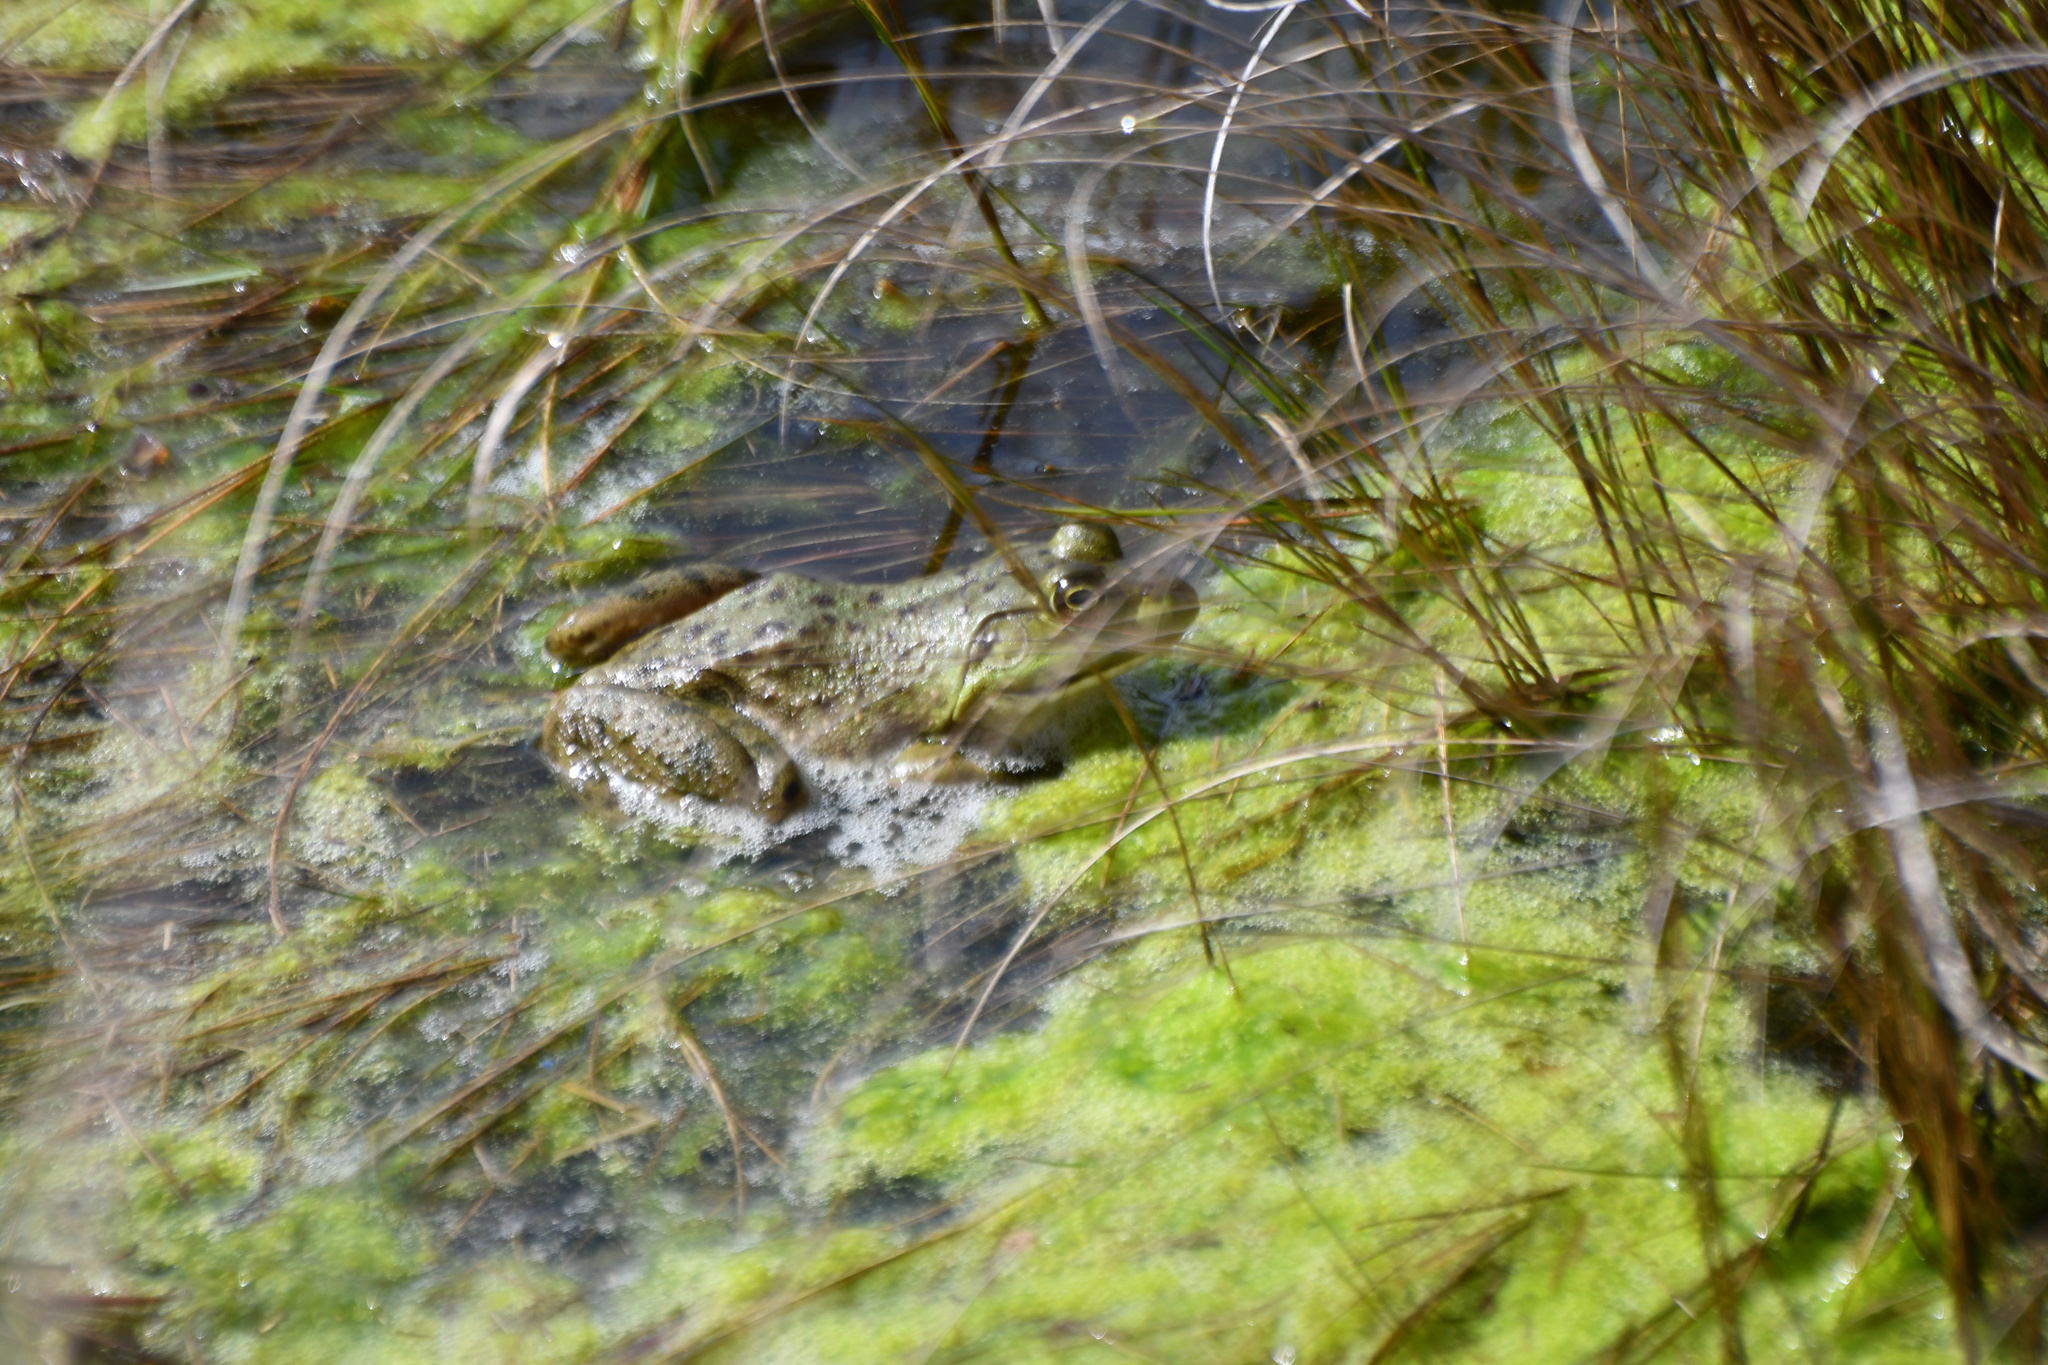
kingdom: Animalia
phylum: Chordata
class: Amphibia
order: Anura
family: Ranidae
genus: Lithobates
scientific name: Lithobates catesbeianus
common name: American bullfrog
